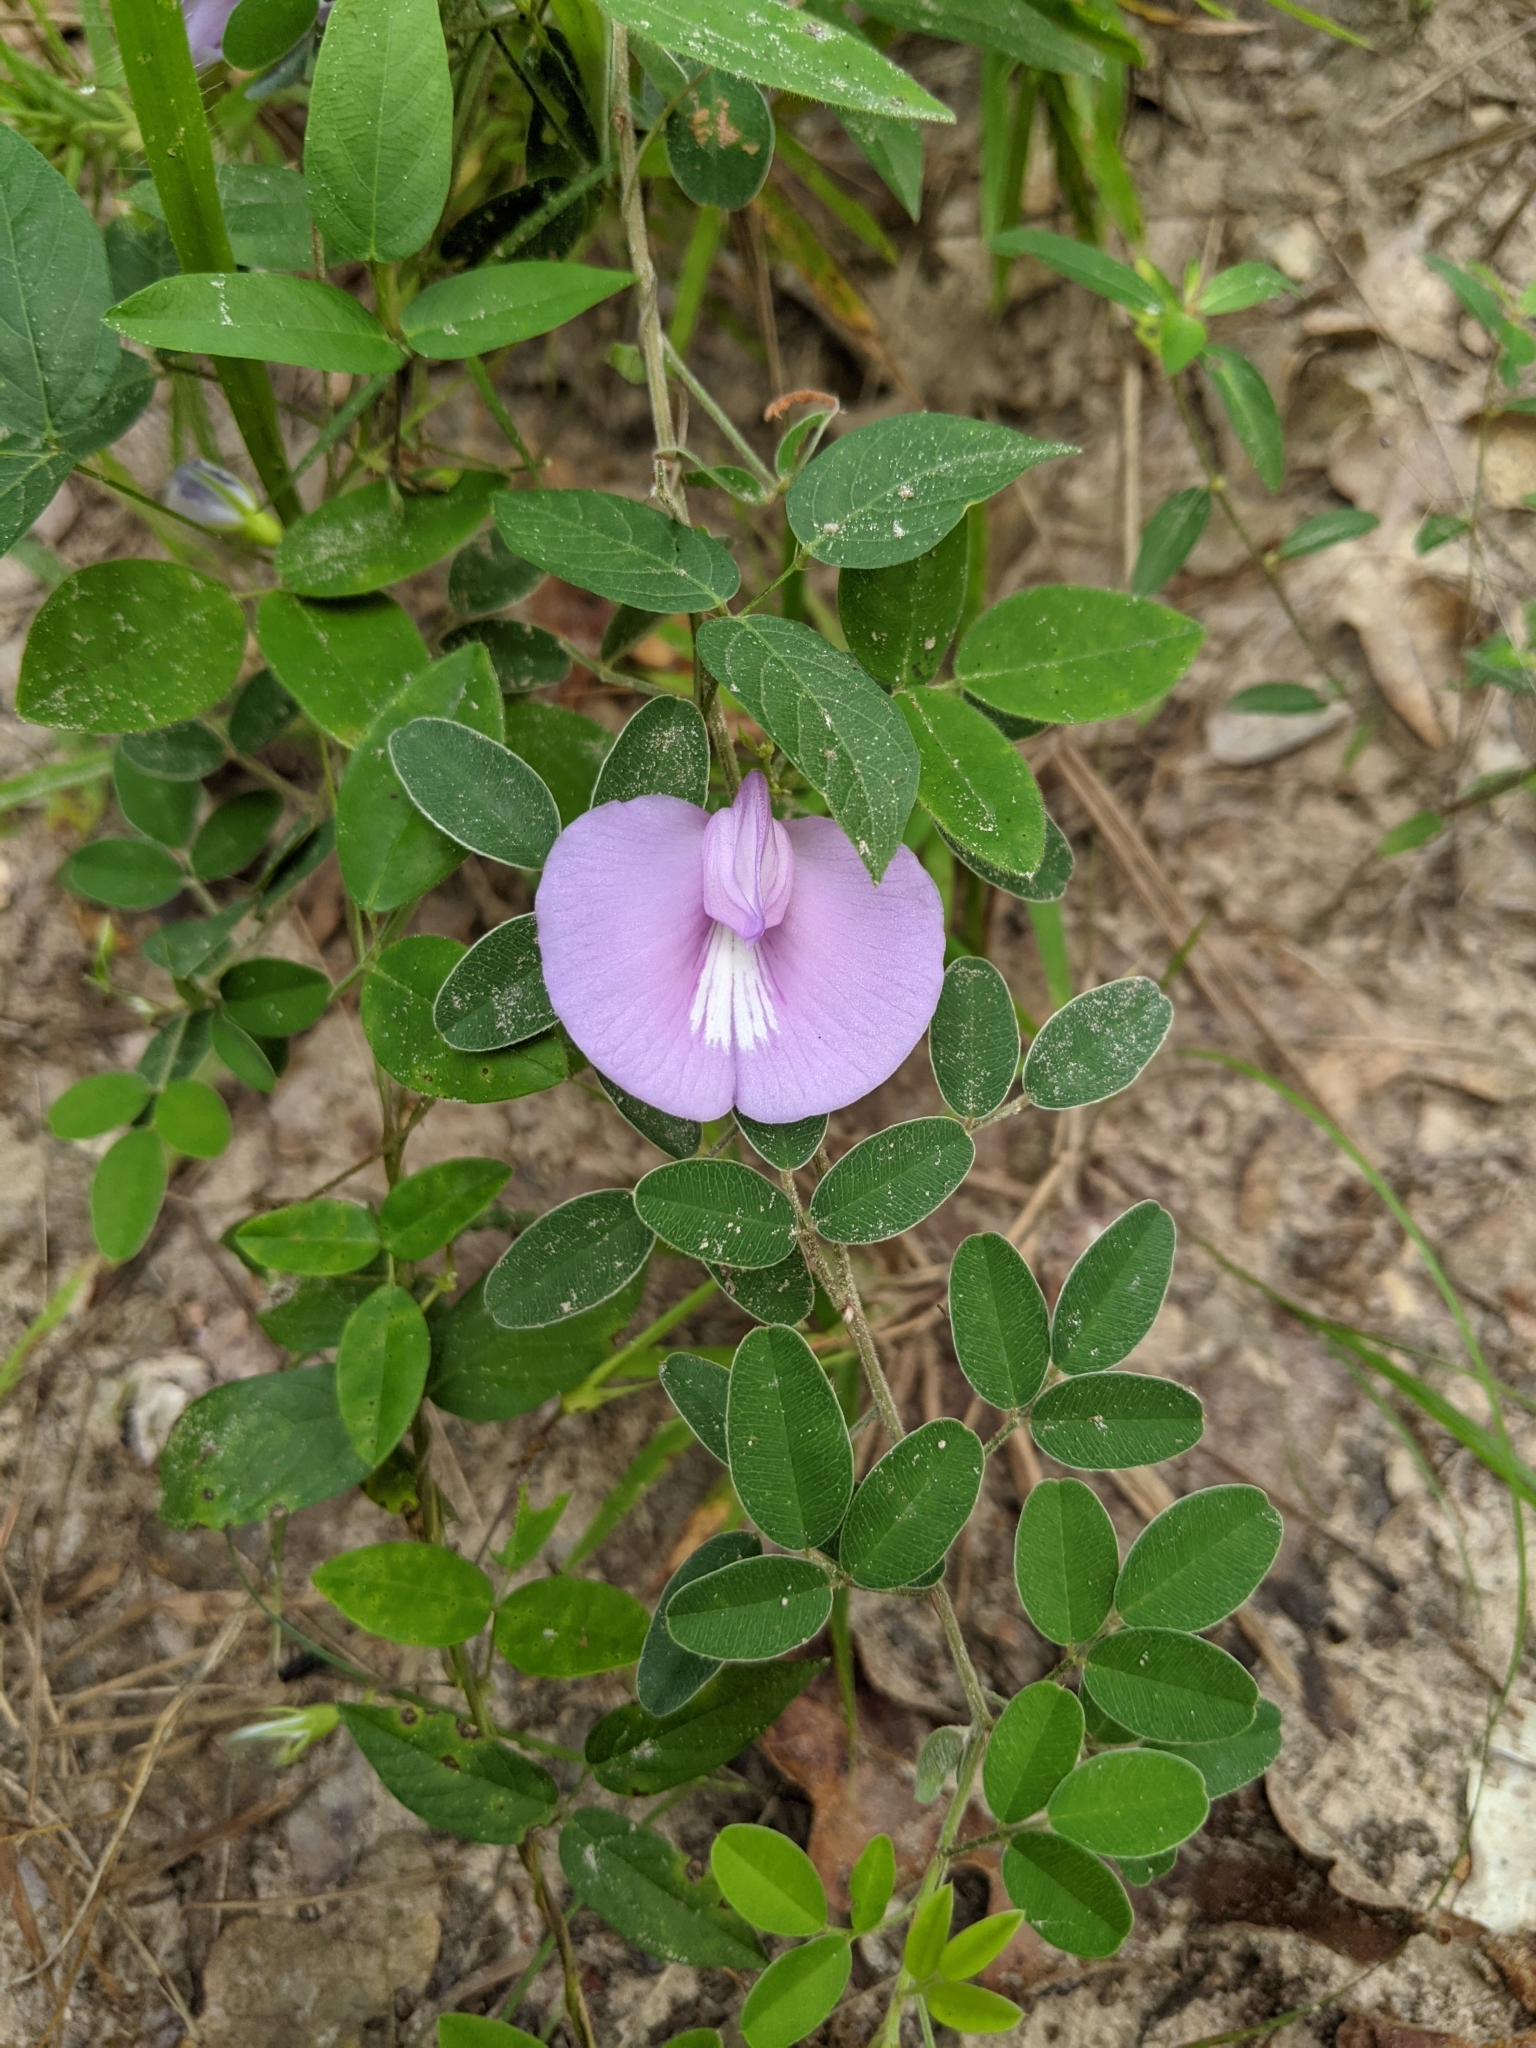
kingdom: Plantae
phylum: Tracheophyta
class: Magnoliopsida
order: Fabales
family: Fabaceae
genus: Centrosema
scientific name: Centrosema virginianum
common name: Butterfly-pea
